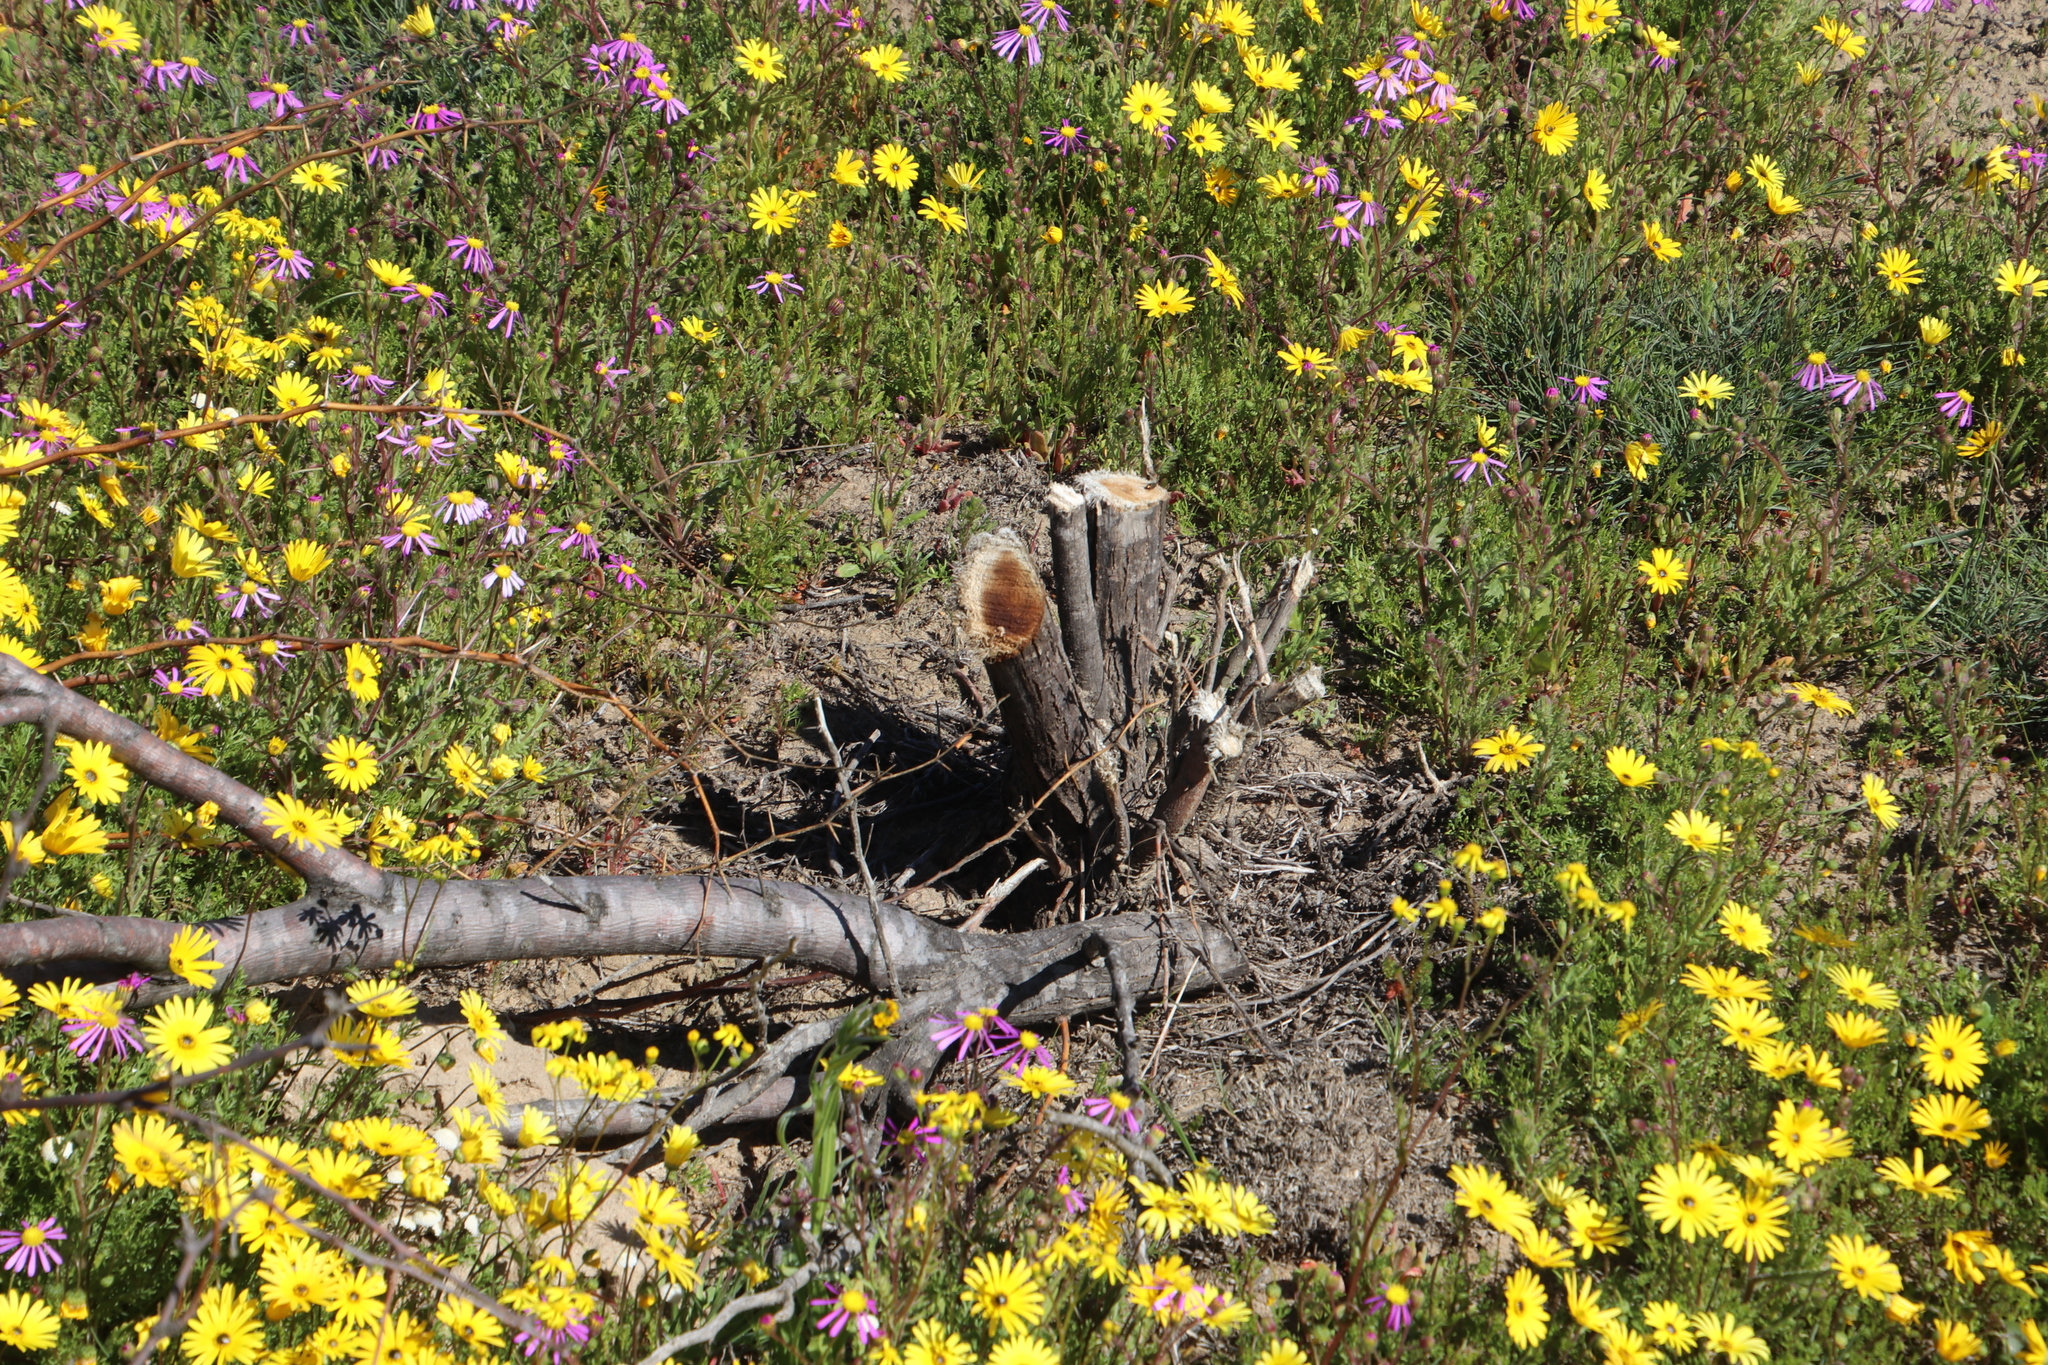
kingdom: Plantae
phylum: Tracheophyta
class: Magnoliopsida
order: Fabales
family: Fabaceae
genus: Prosopis
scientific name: Prosopis pubescens
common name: Screw-bean
